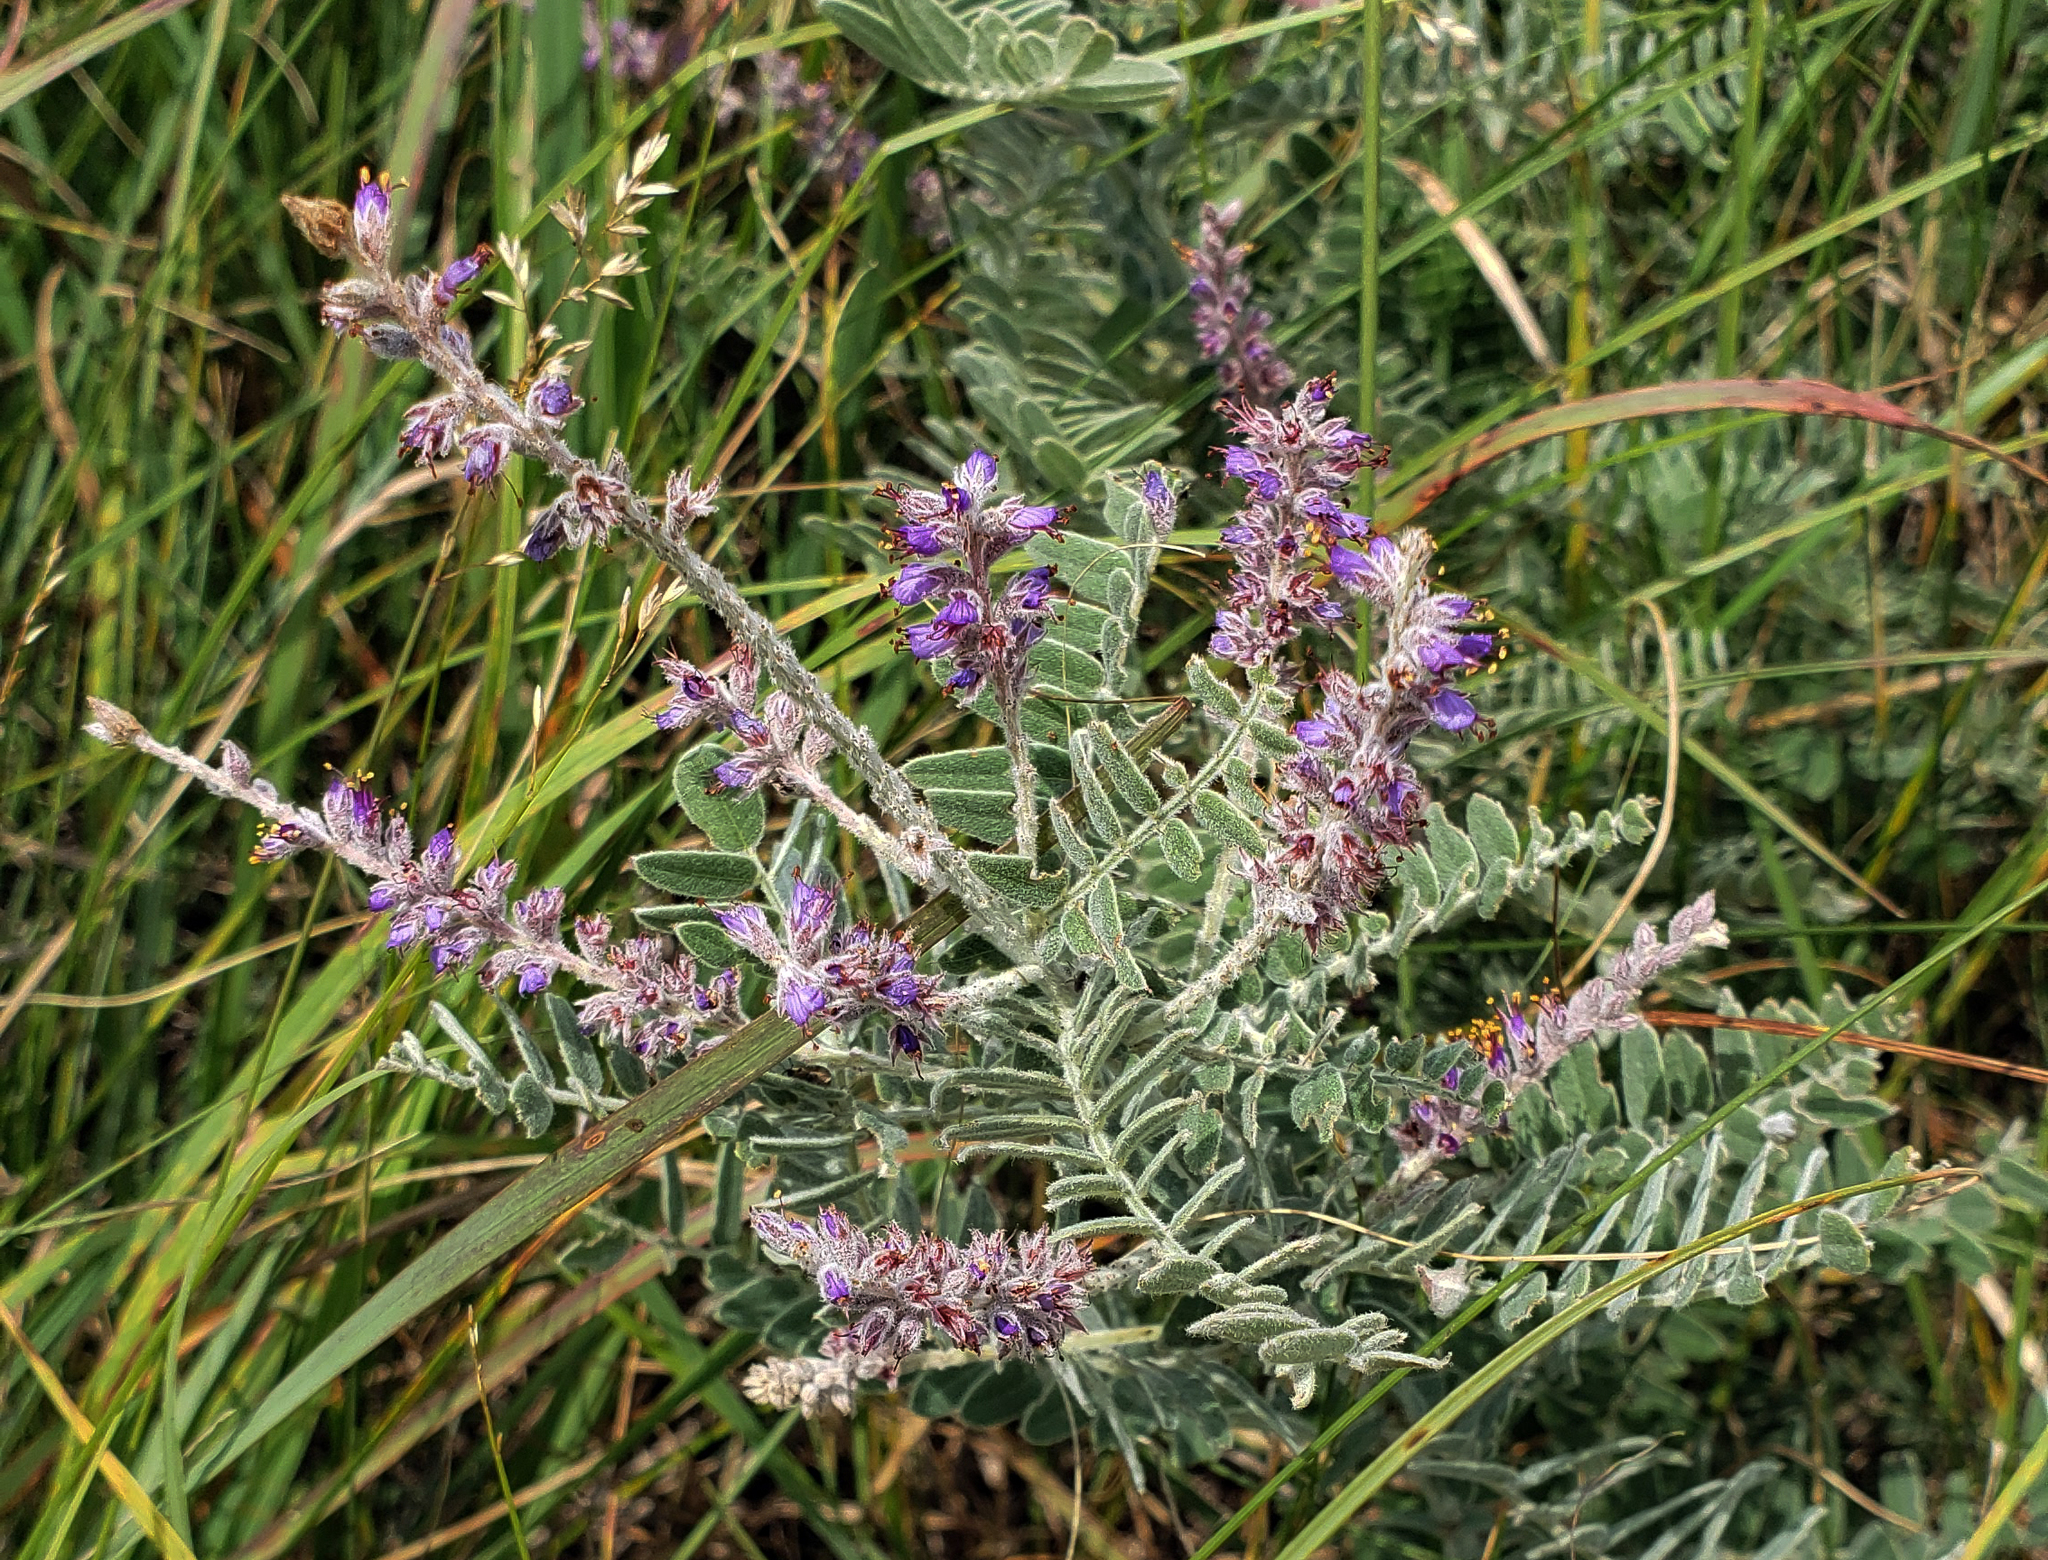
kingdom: Plantae
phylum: Tracheophyta
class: Magnoliopsida
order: Fabales
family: Fabaceae
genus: Amorpha
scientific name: Amorpha canescens
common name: Leadplant
